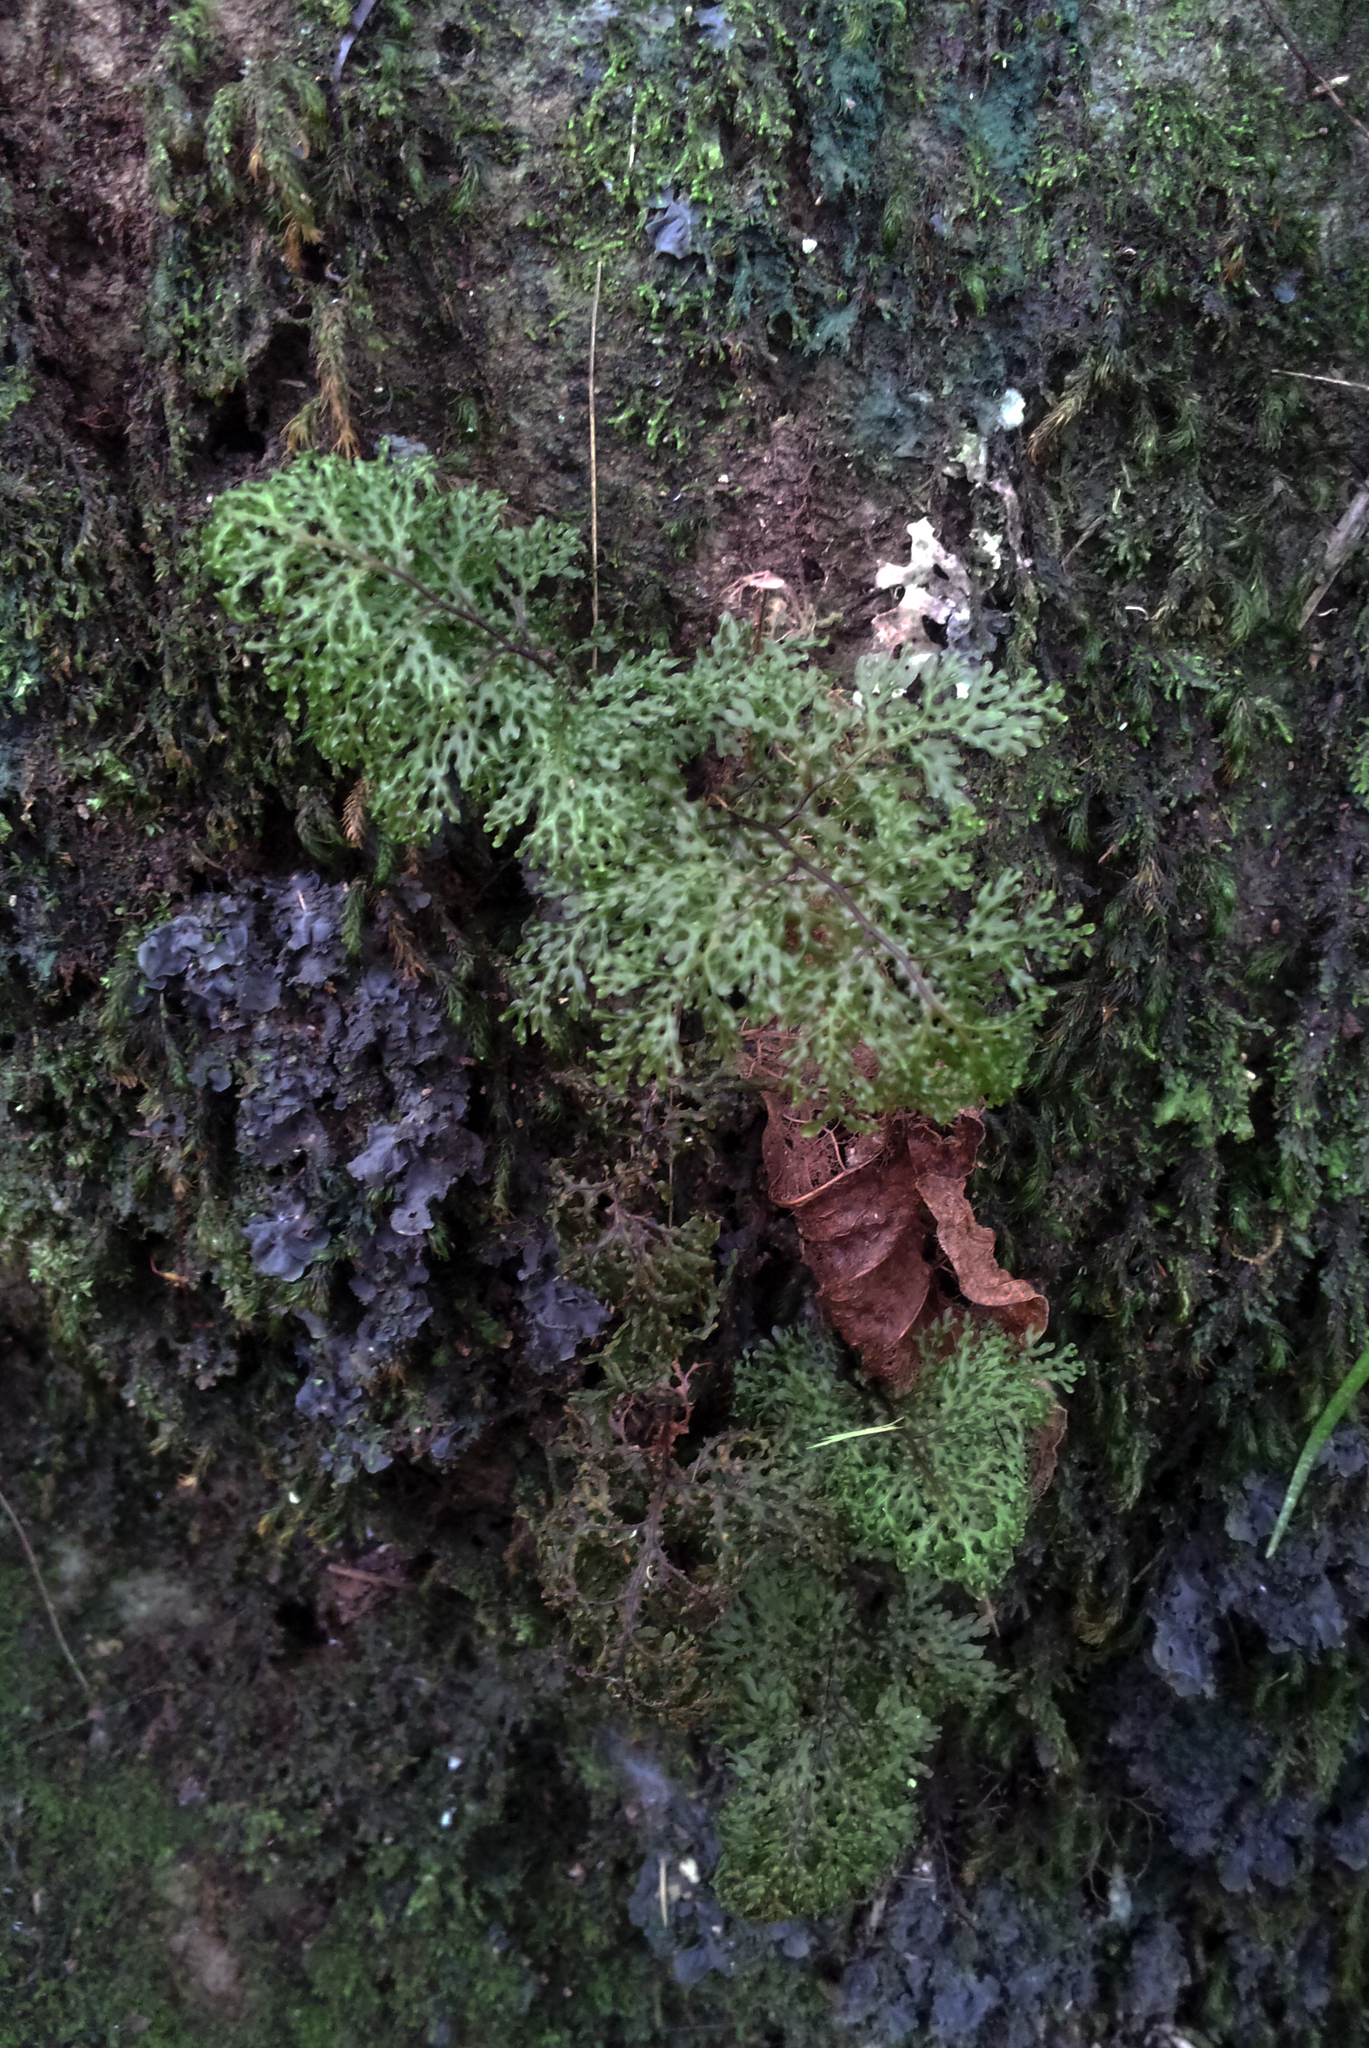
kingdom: Plantae
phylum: Tracheophyta
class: Polypodiopsida
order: Hymenophyllales
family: Hymenophyllaceae
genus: Hymenophyllum
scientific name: Hymenophyllum flexuosum
